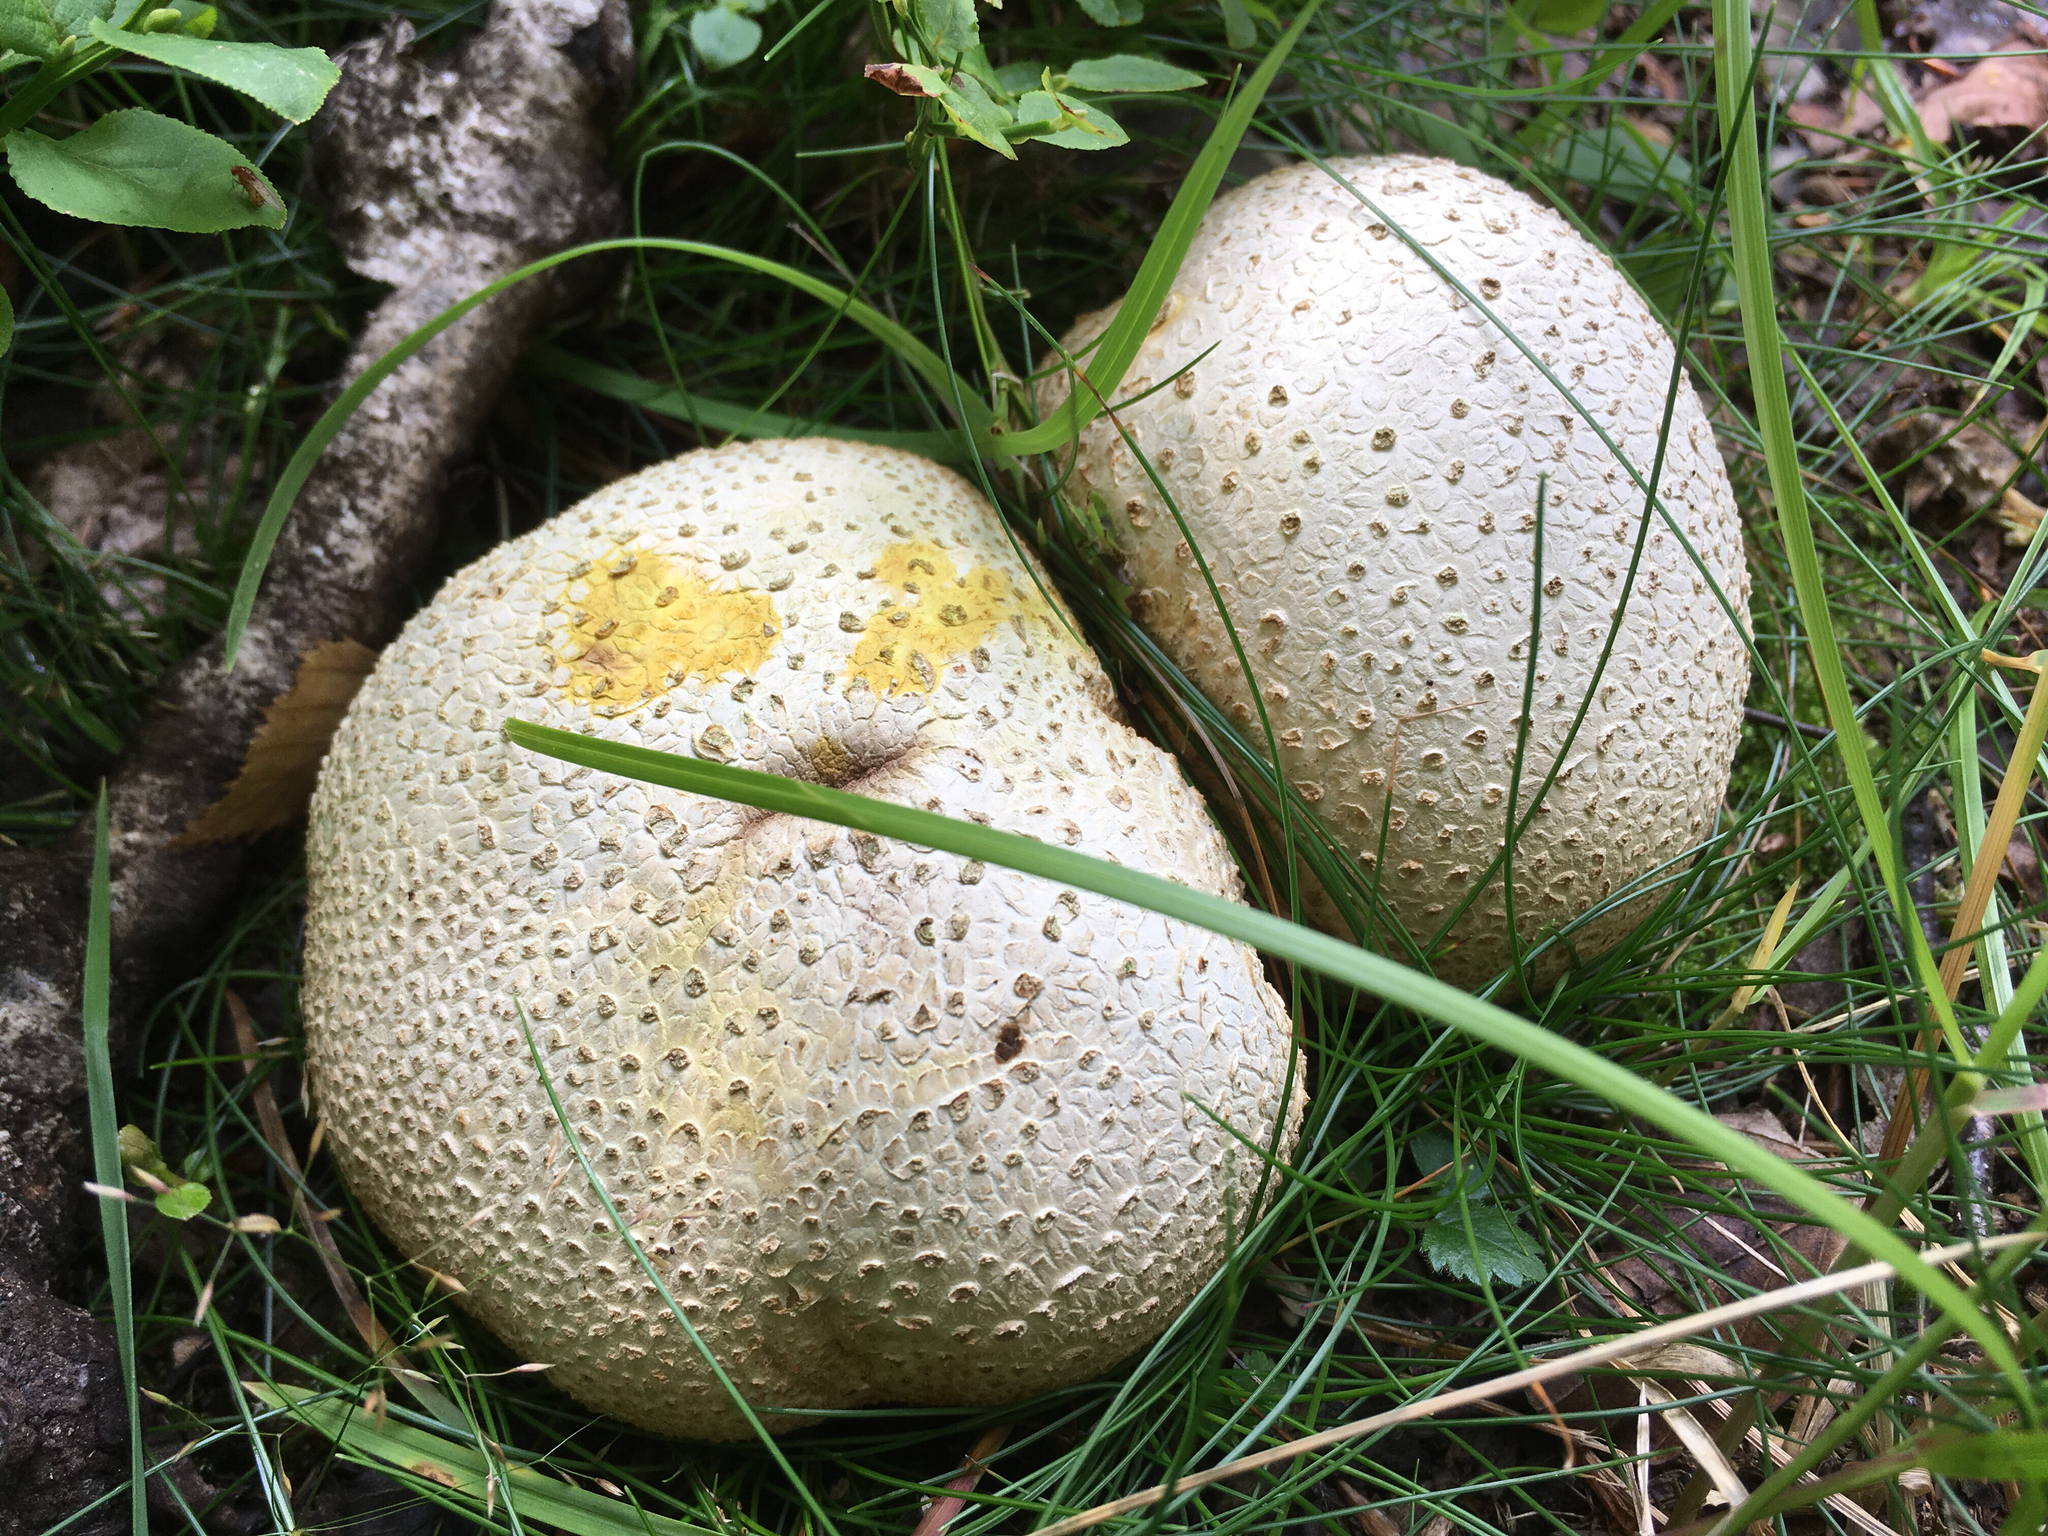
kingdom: Fungi
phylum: Basidiomycota
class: Agaricomycetes
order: Boletales
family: Sclerodermataceae
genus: Scleroderma
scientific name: Scleroderma citrinum
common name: Common earthball
